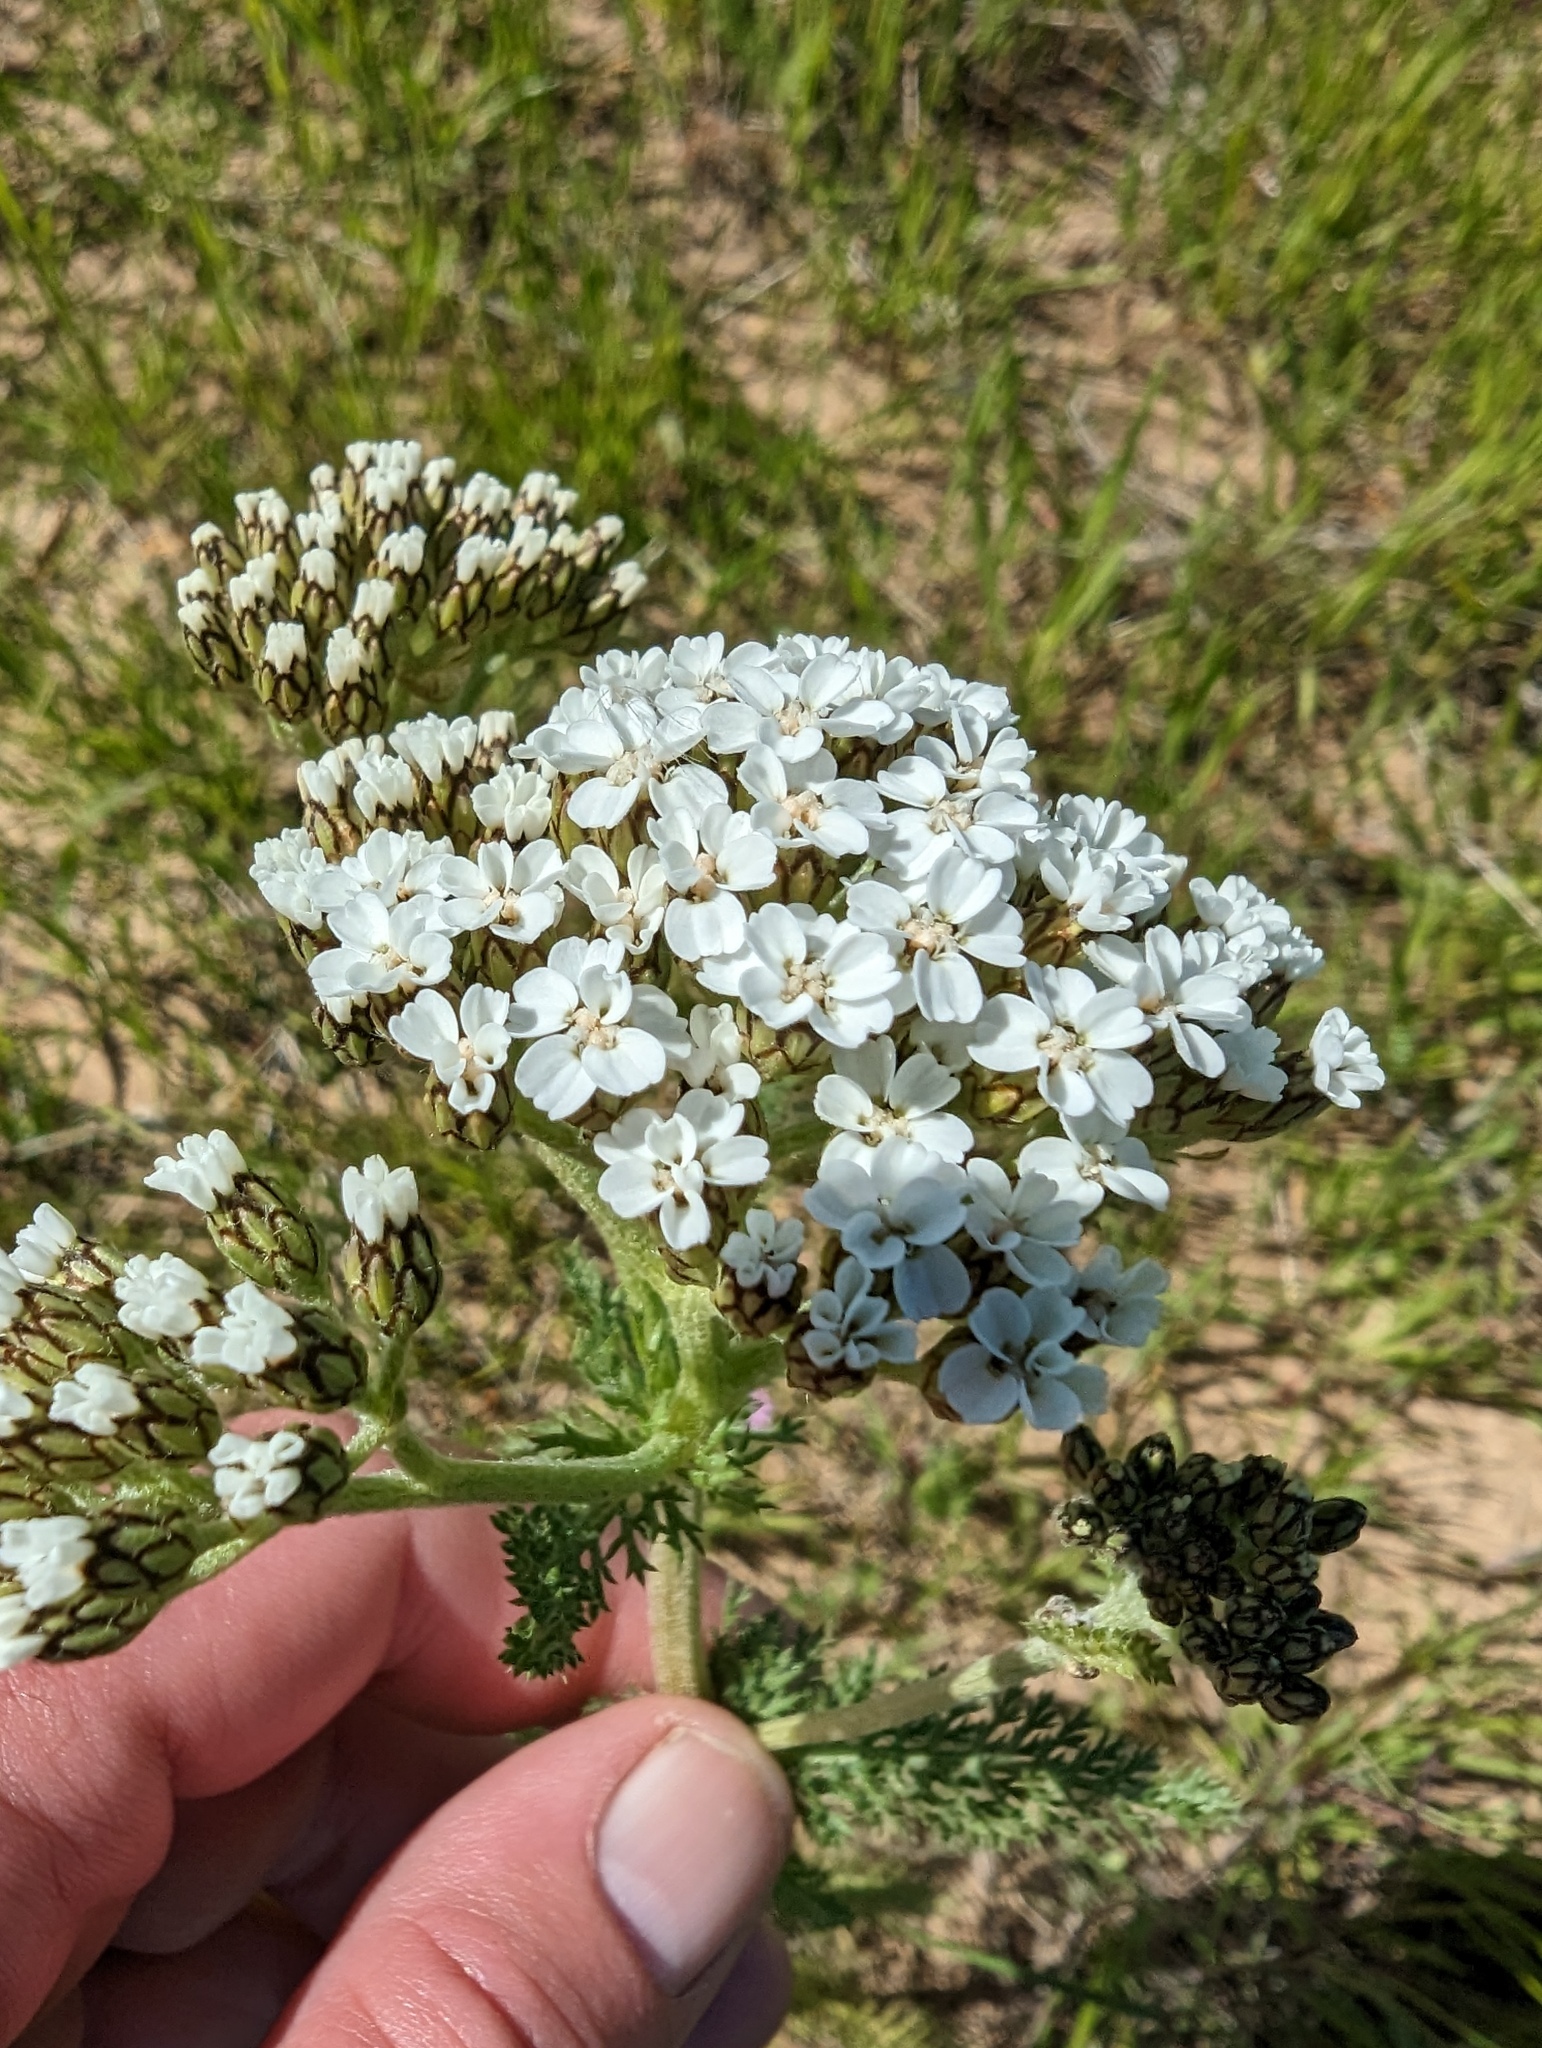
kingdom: Plantae
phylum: Tracheophyta
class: Magnoliopsida
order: Asterales
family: Asteraceae
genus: Achillea
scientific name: Achillea millefolium
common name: Yarrow
